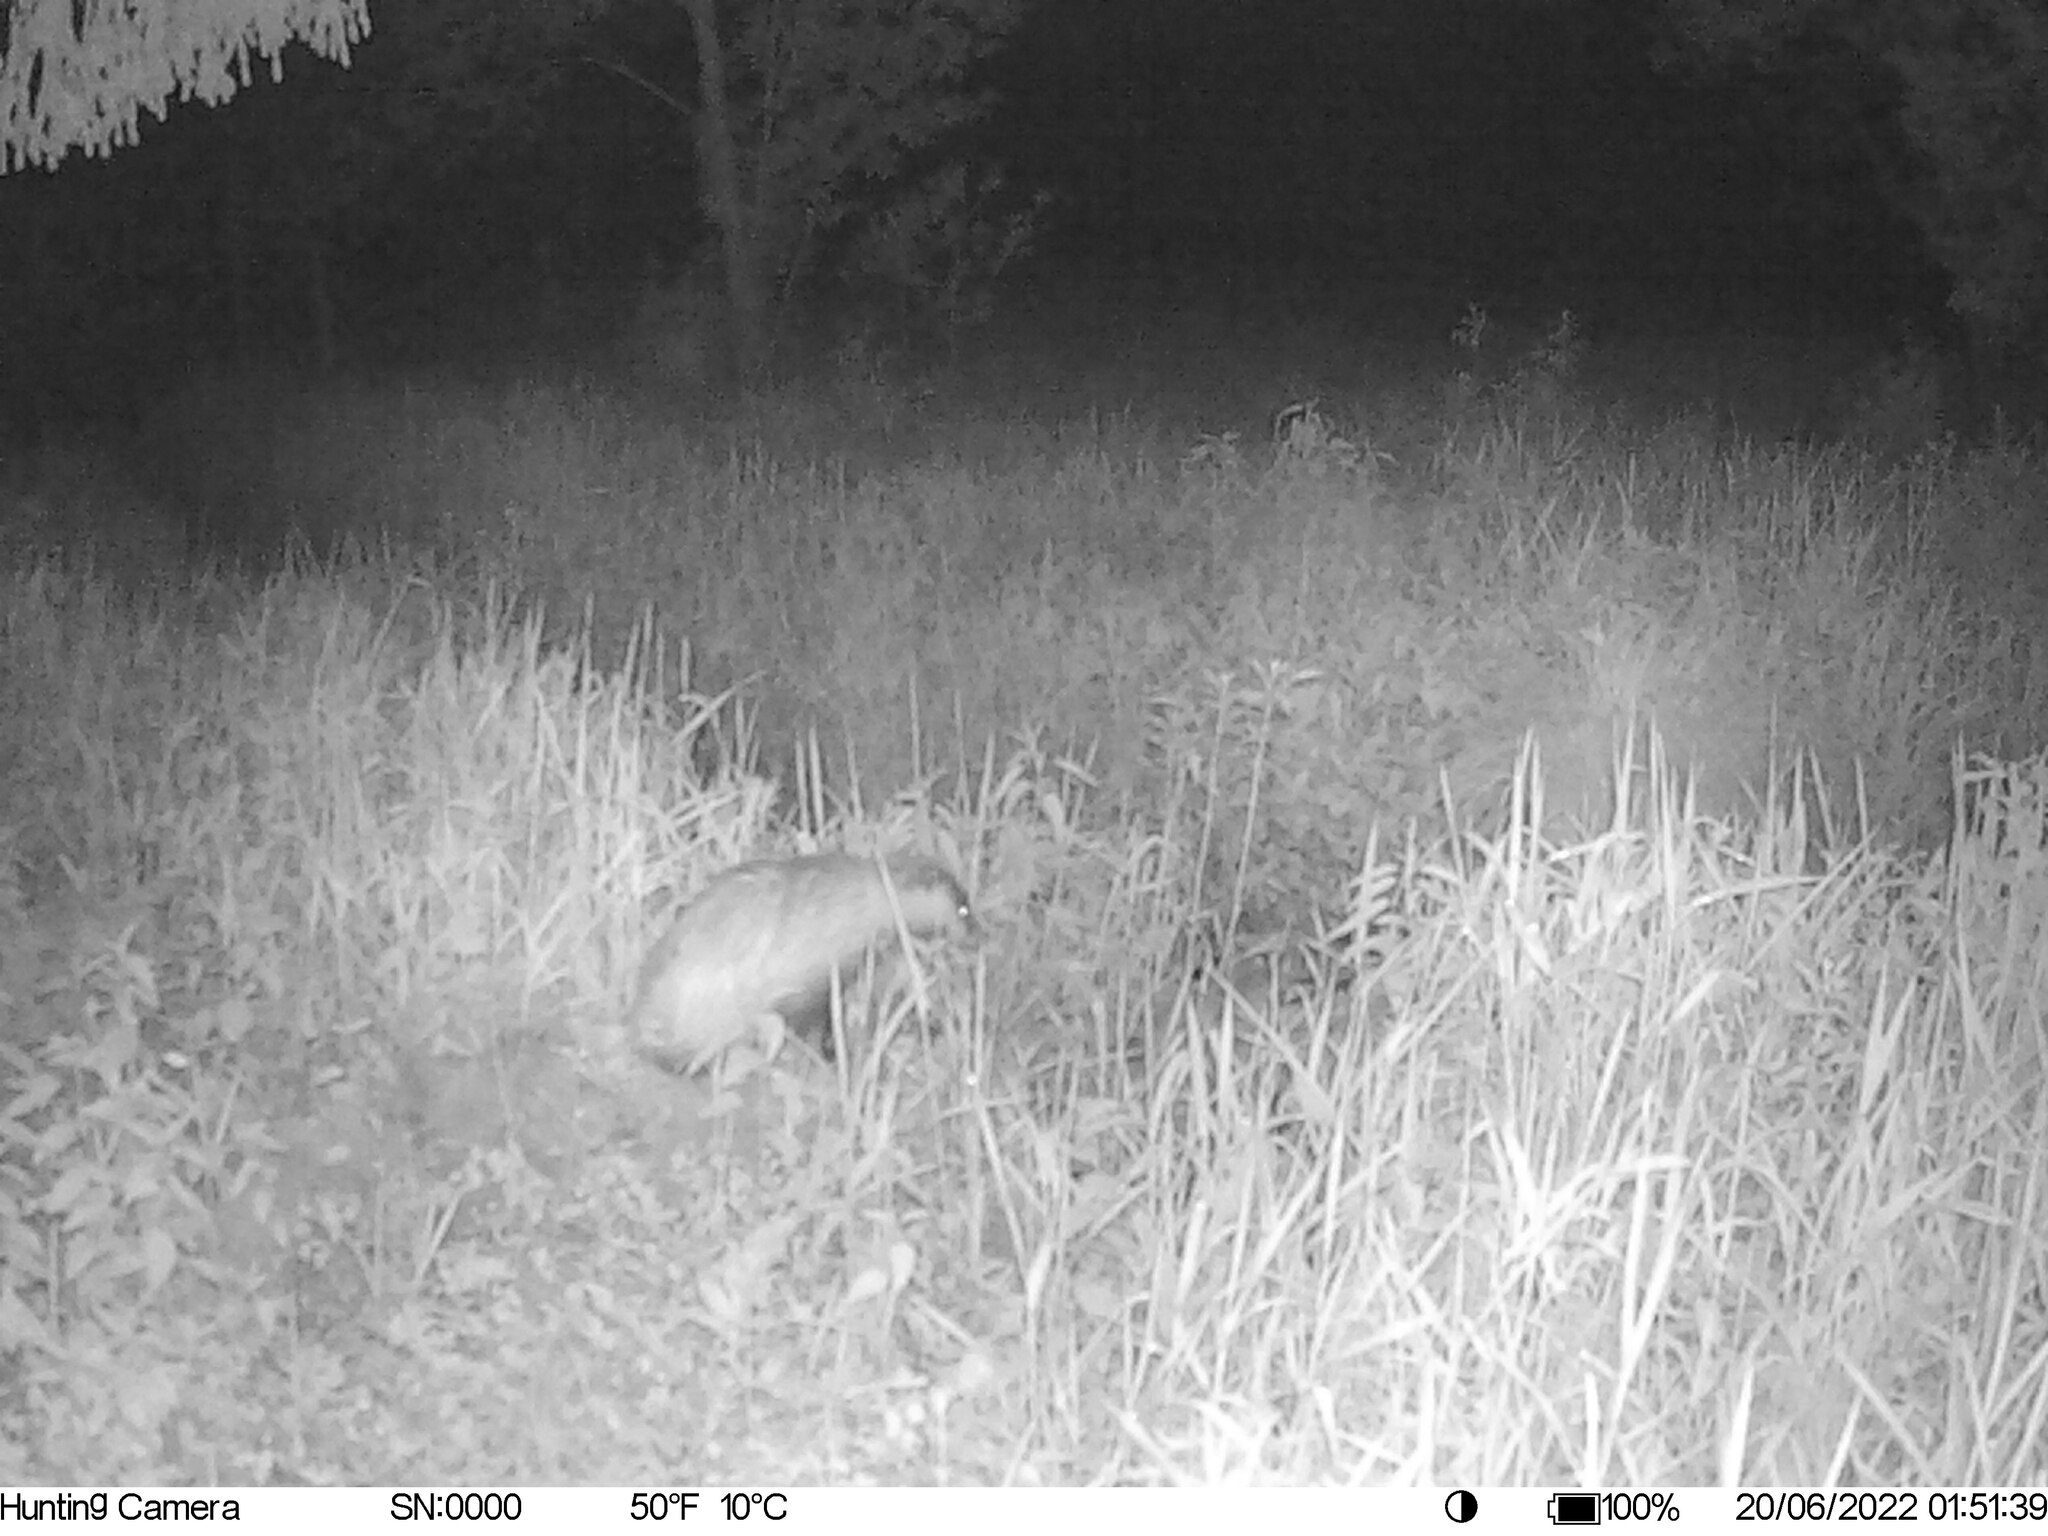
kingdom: Animalia
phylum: Chordata
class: Mammalia
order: Carnivora
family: Mustelidae
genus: Meles
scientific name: Meles meles
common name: Eurasian badger
